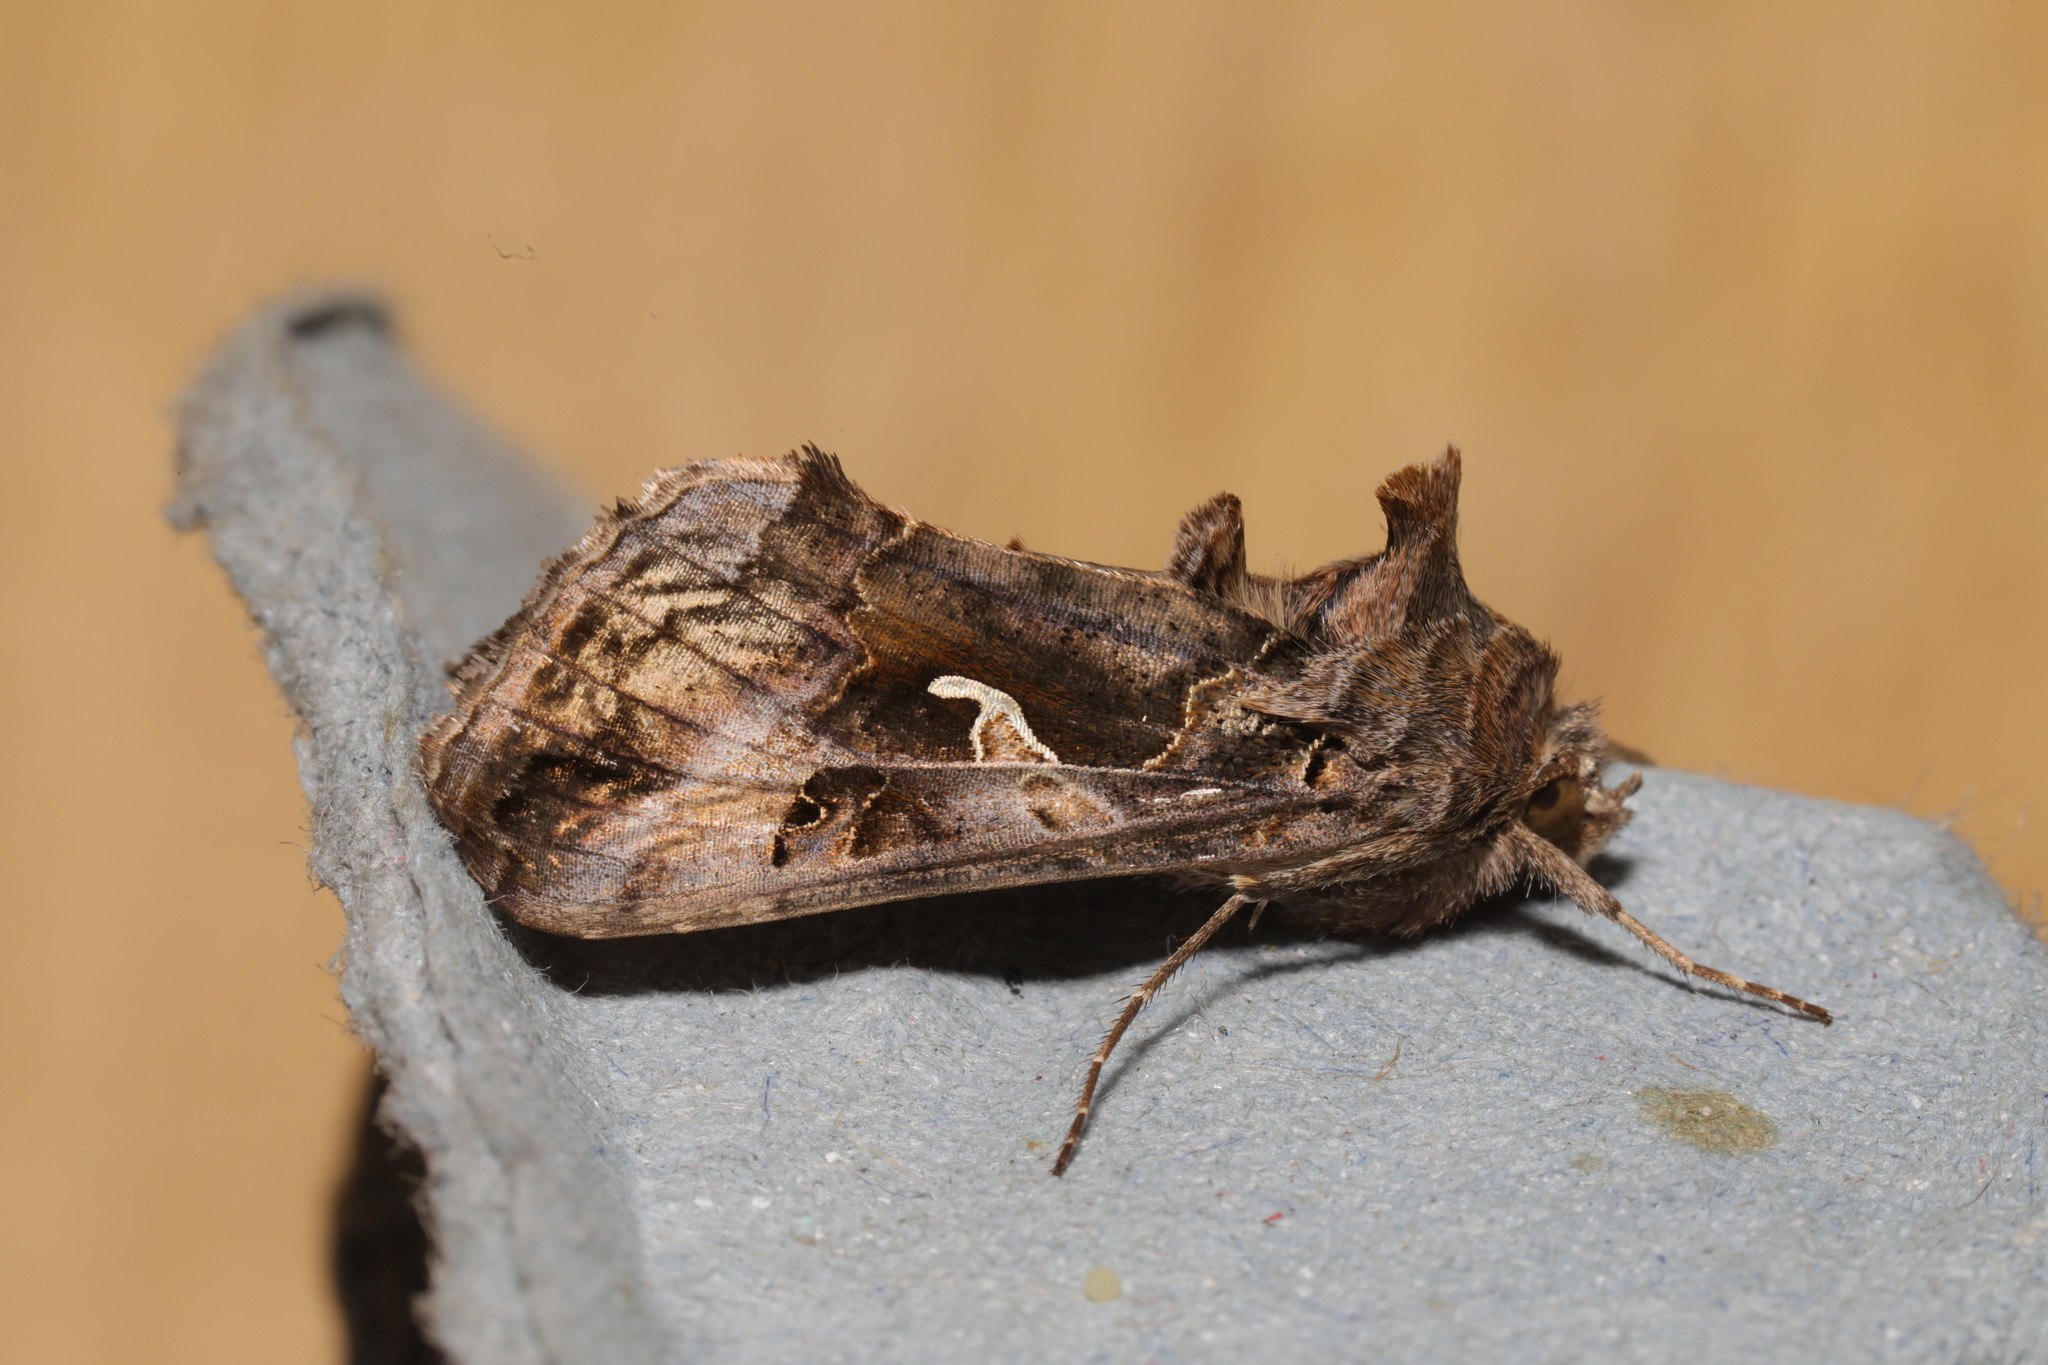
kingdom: Animalia
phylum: Arthropoda
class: Insecta
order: Lepidoptera
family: Noctuidae
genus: Autographa
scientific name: Autographa gamma
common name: Silver y
